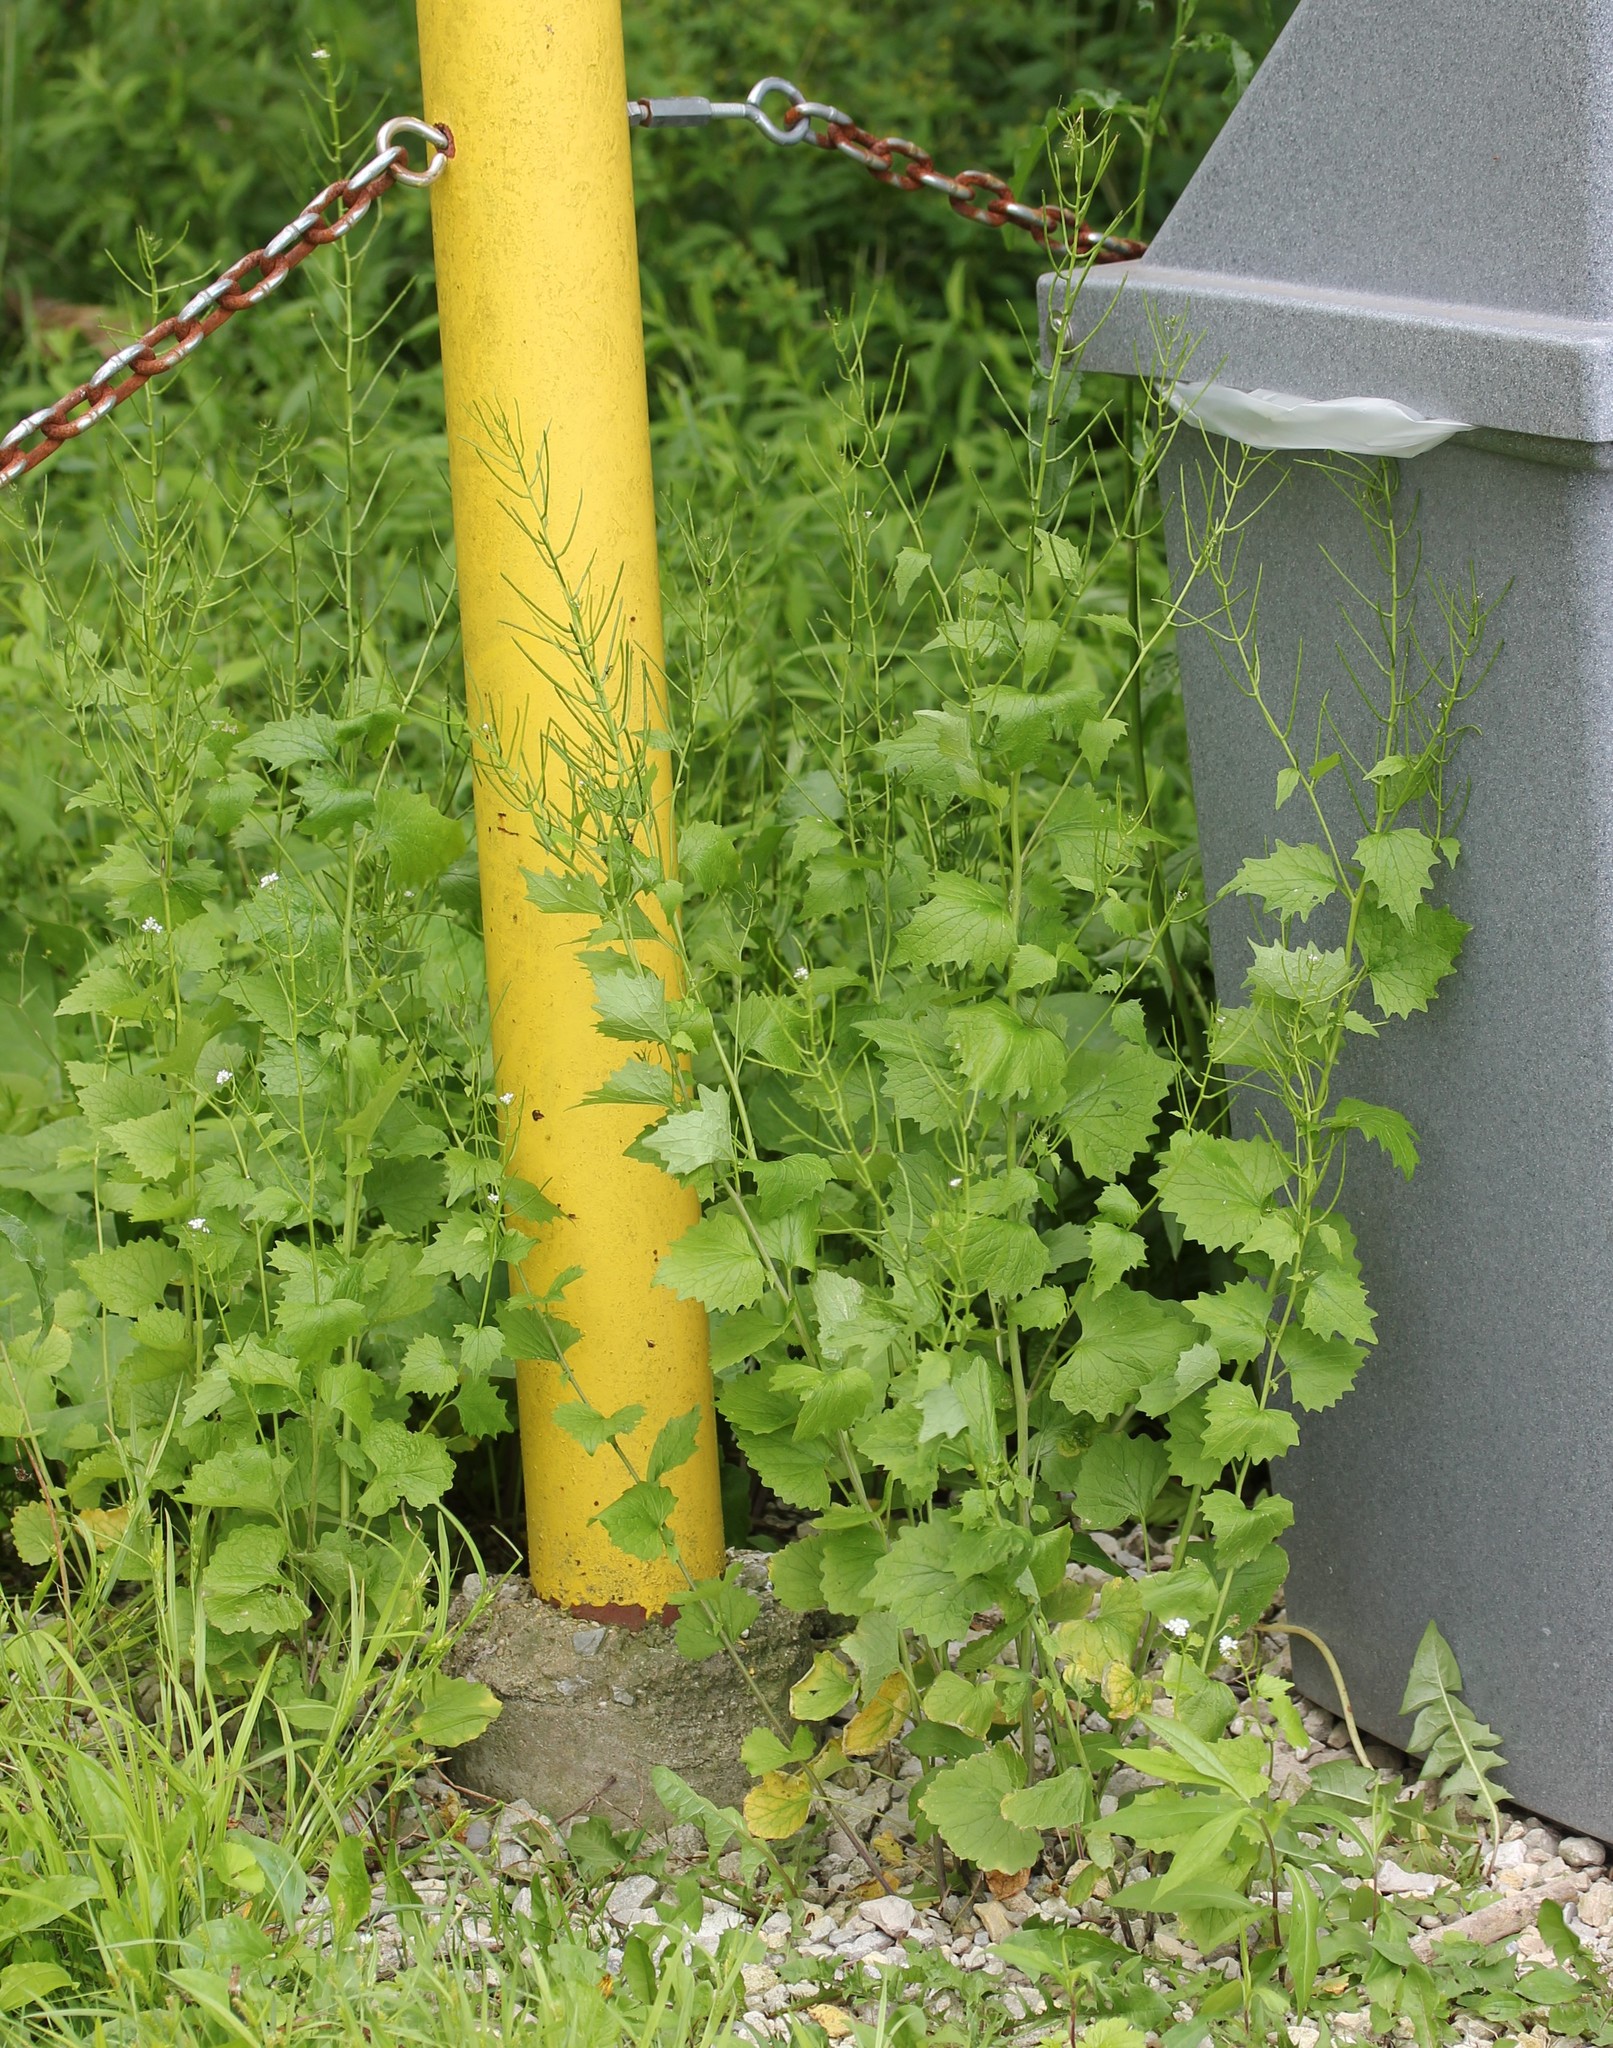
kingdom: Plantae
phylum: Tracheophyta
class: Magnoliopsida
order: Brassicales
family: Brassicaceae
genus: Alliaria
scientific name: Alliaria petiolata
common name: Garlic mustard
